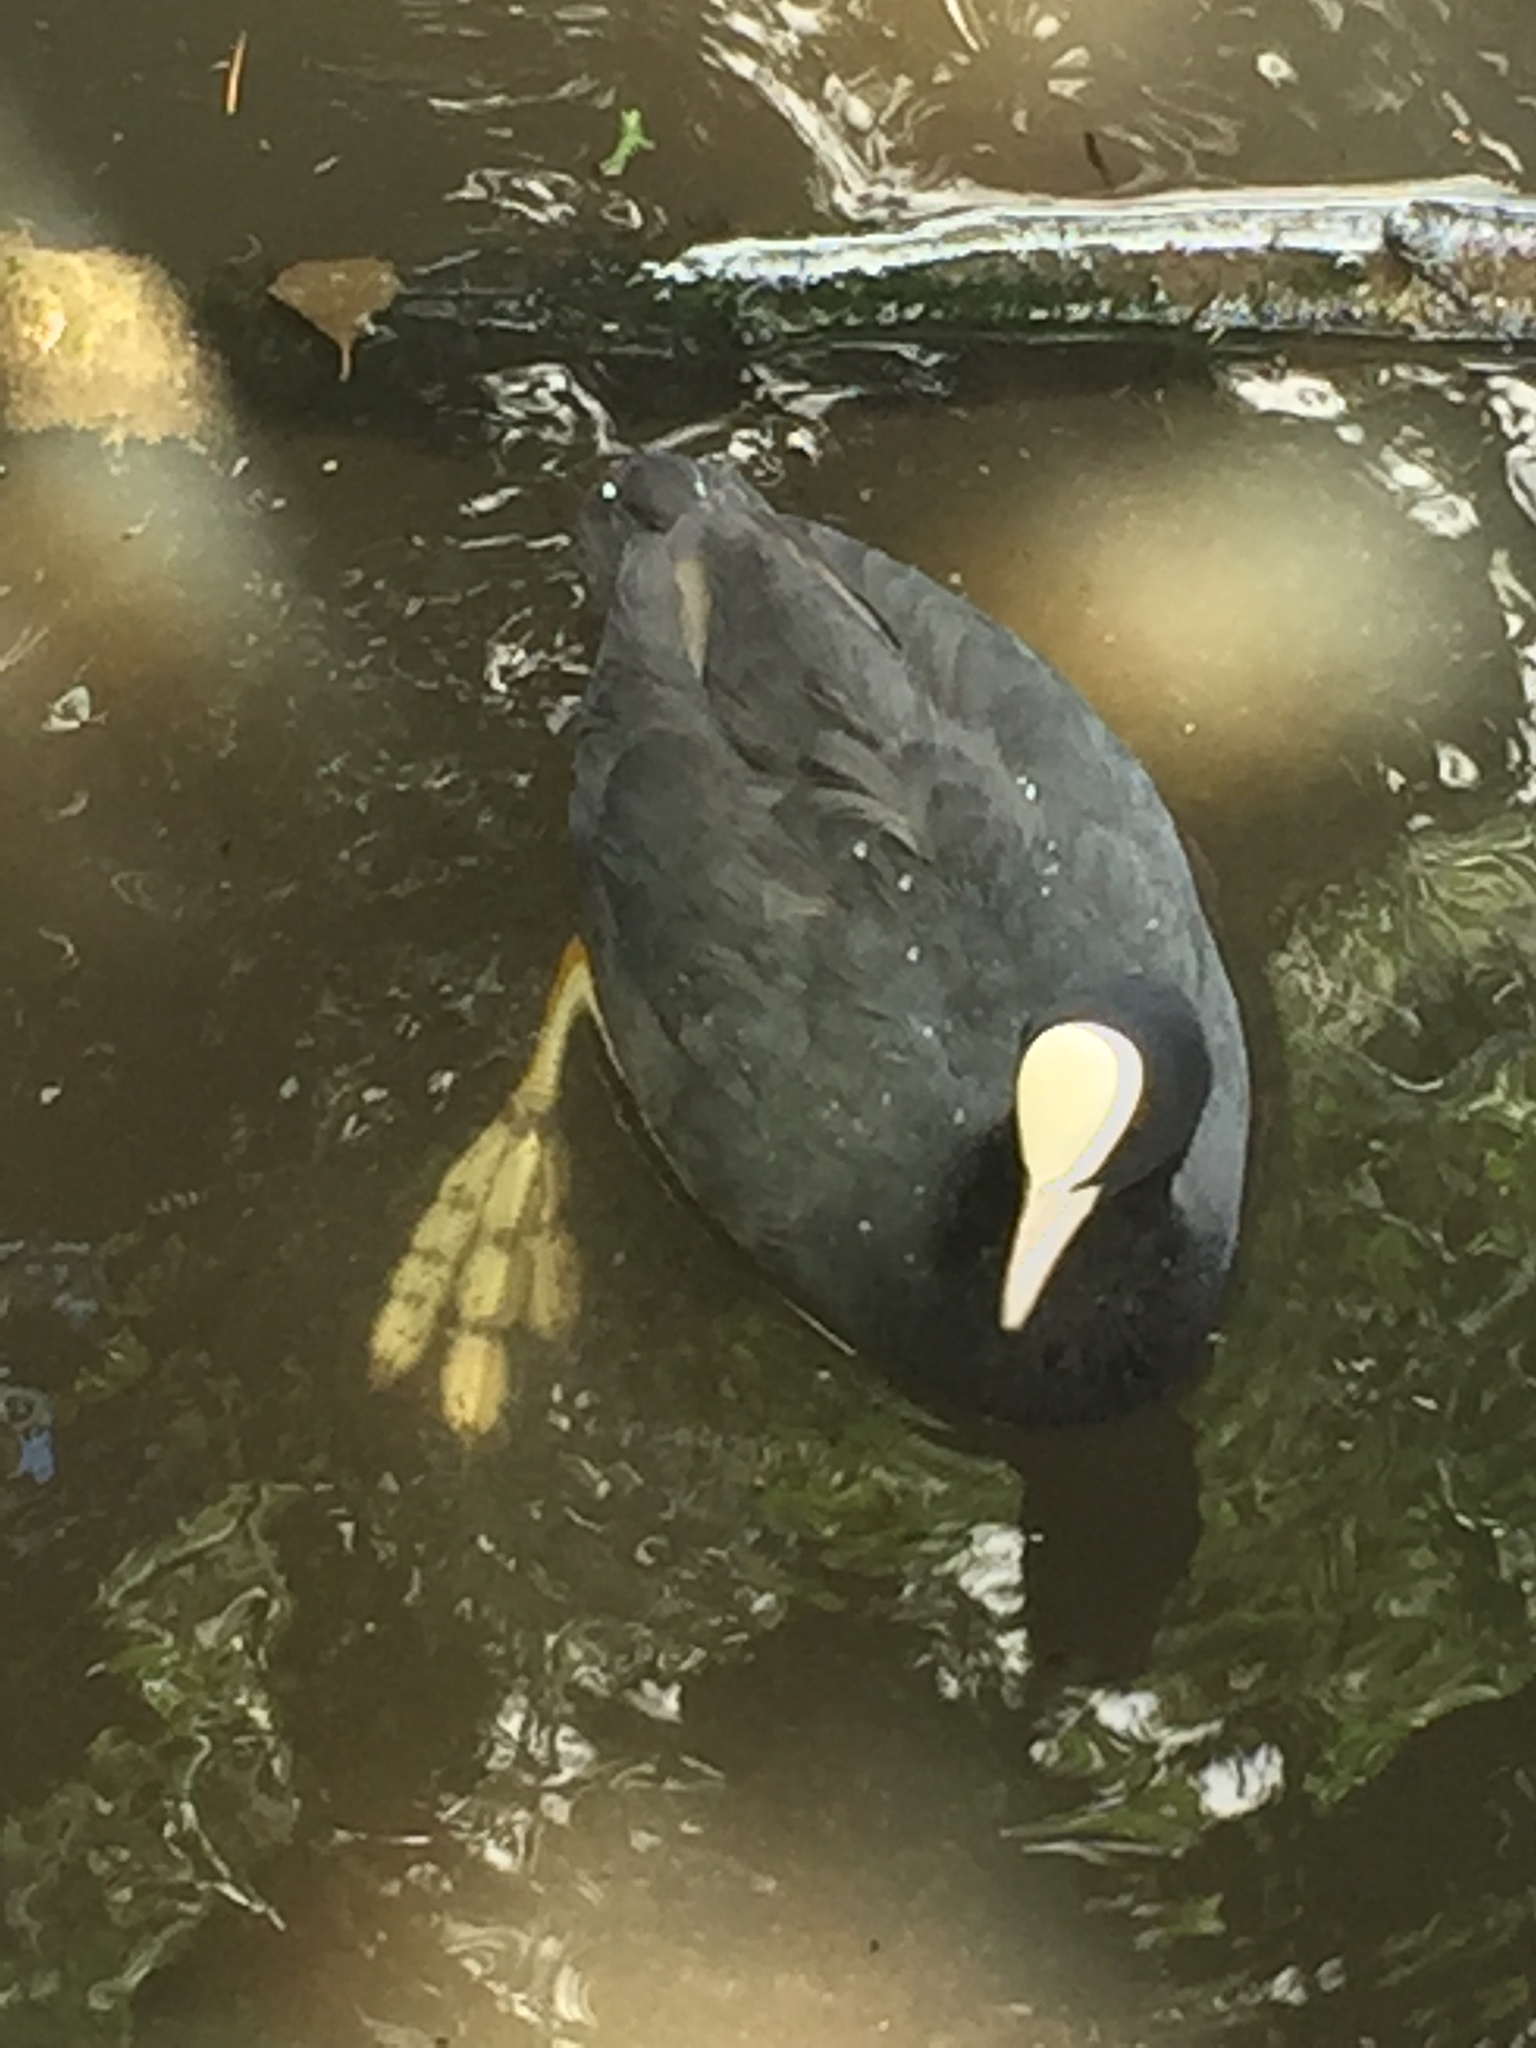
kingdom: Animalia
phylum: Chordata
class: Aves
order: Gruiformes
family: Rallidae
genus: Fulica
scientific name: Fulica atra
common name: Eurasian coot
